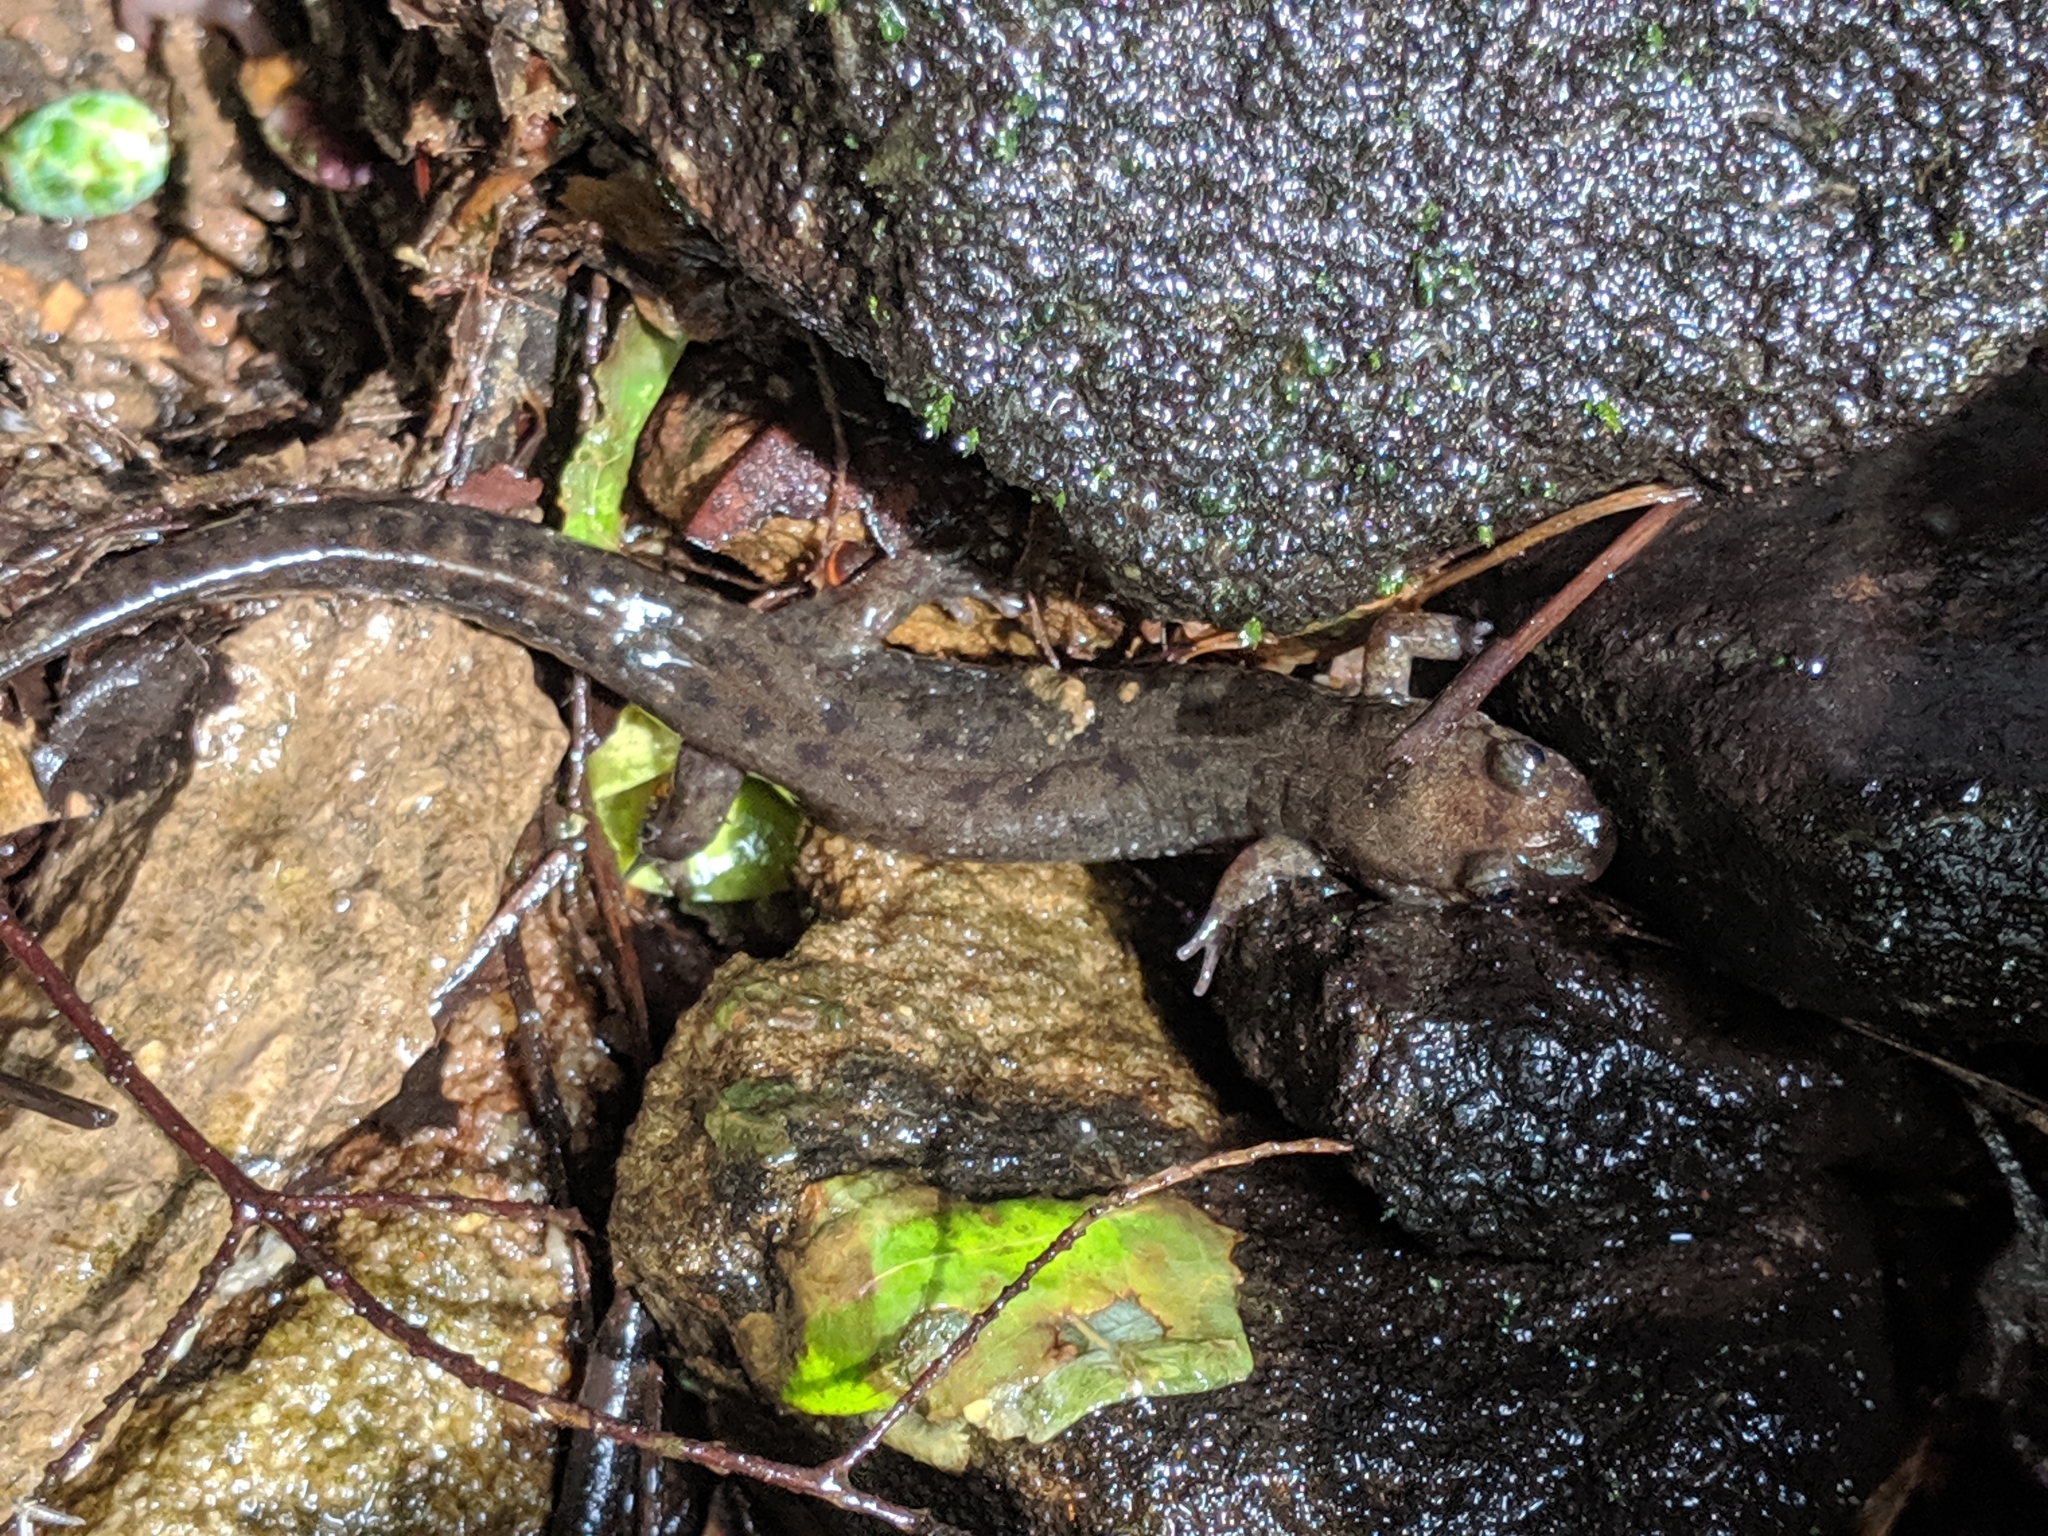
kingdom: Animalia
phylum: Chordata
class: Amphibia
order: Caudata
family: Plethodontidae
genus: Desmognathus
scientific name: Desmognathus monticola
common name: Seal salamander
